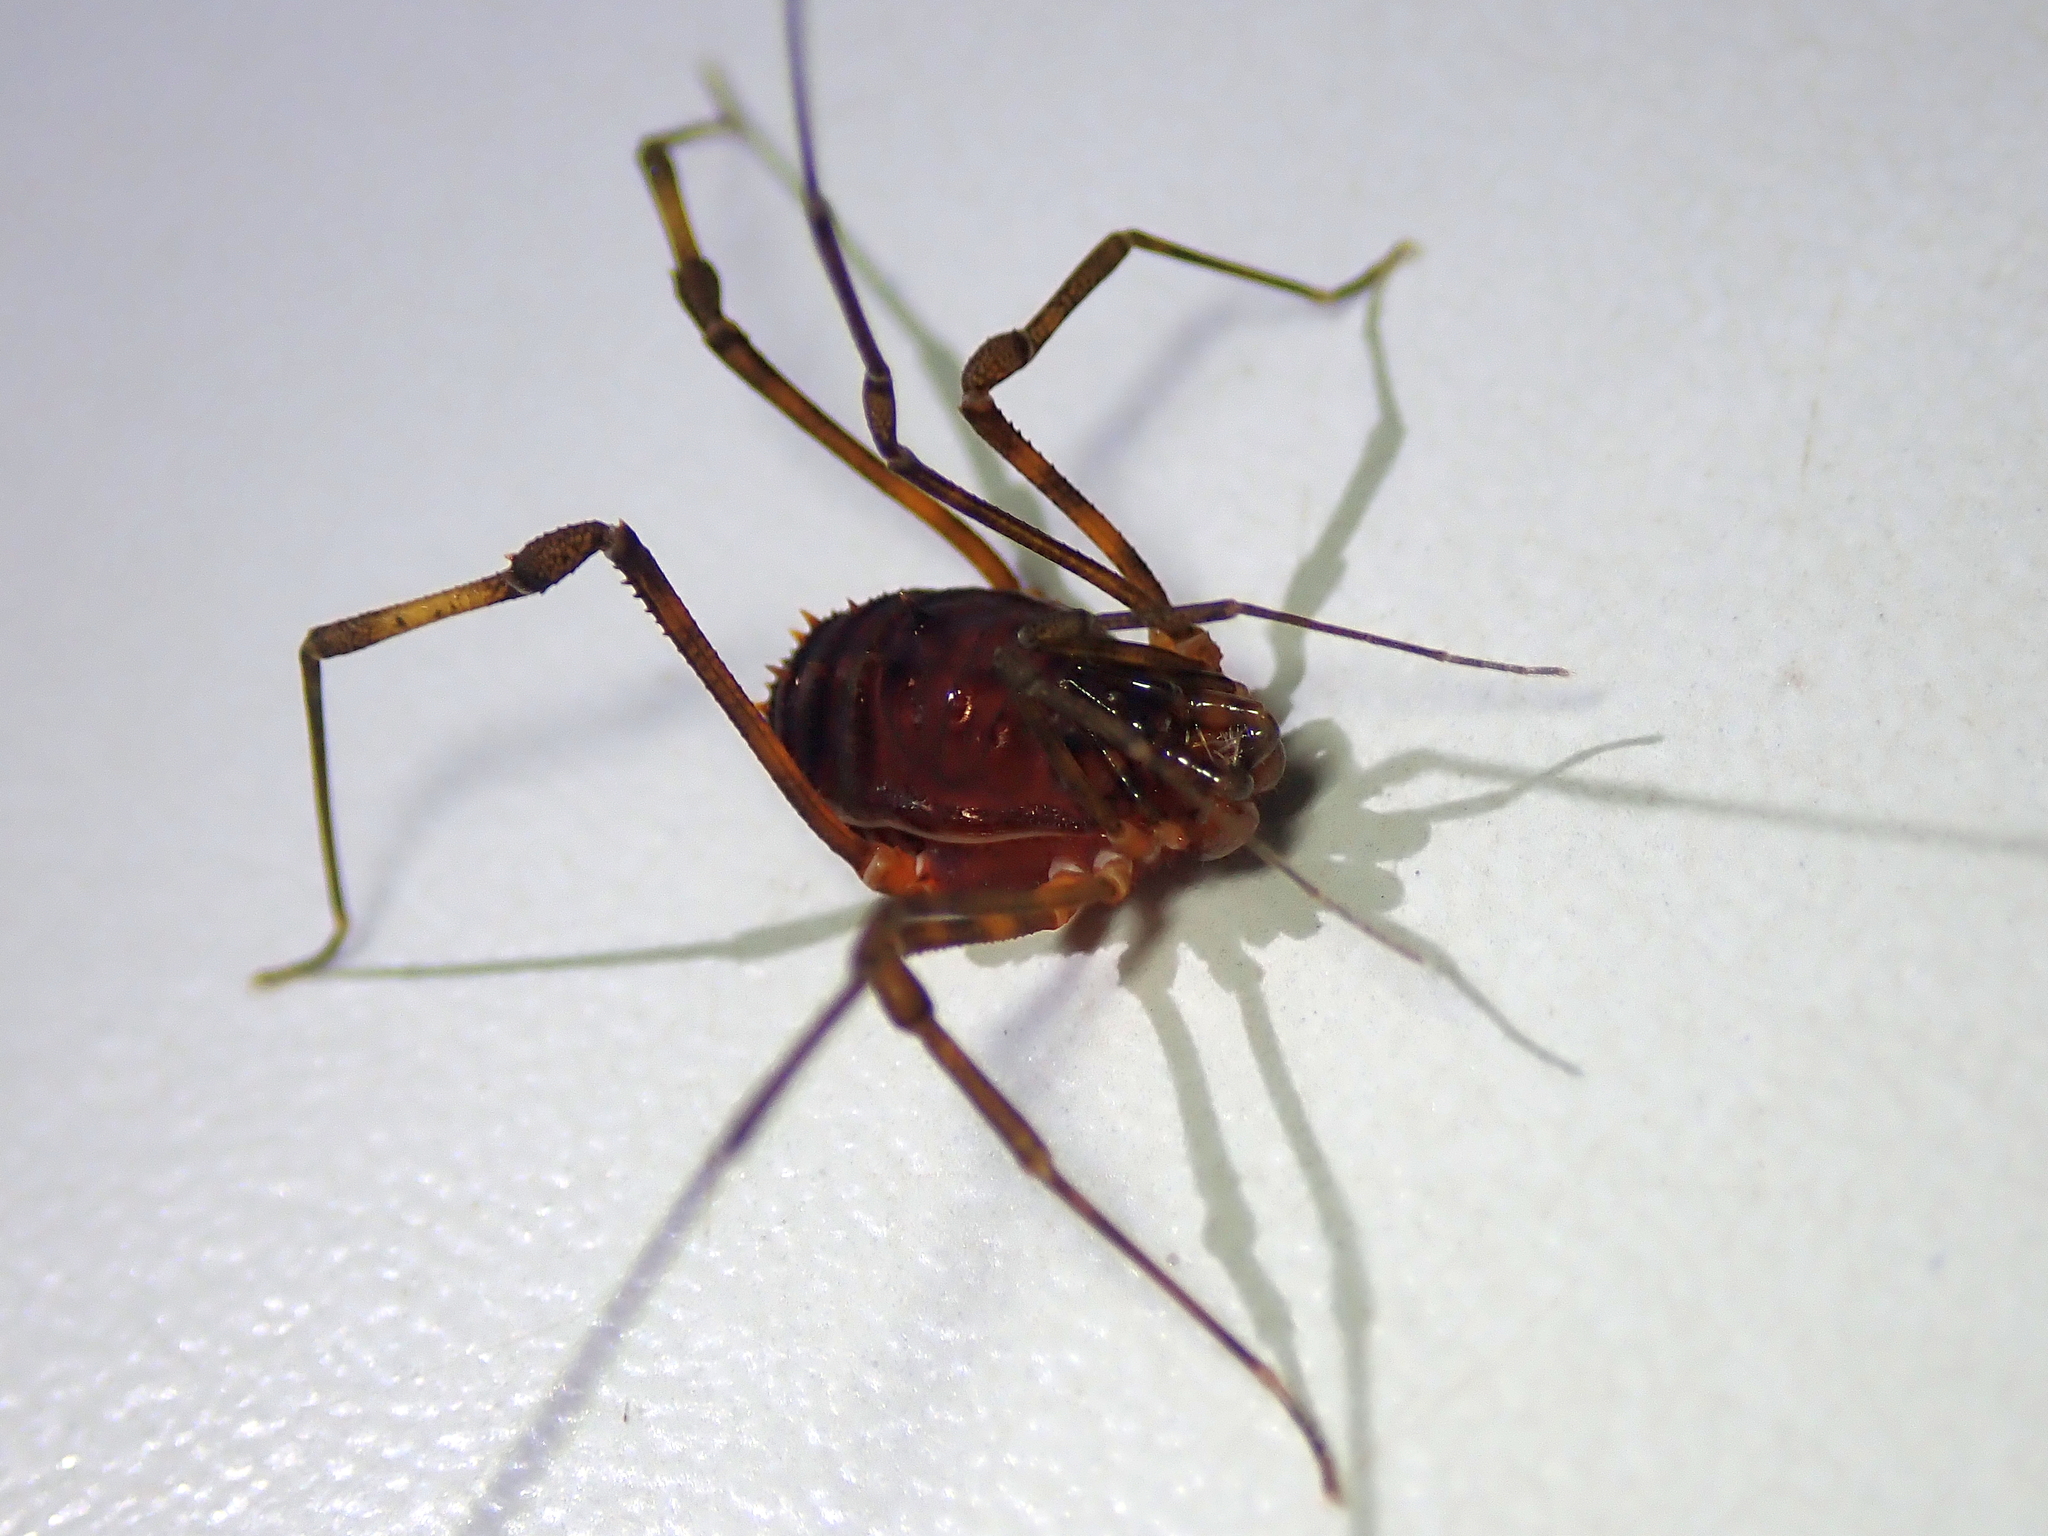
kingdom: Animalia
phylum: Arthropoda
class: Arachnida
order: Opiliones
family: Stygnidae
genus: Stygnus
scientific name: Stygnus luteus
